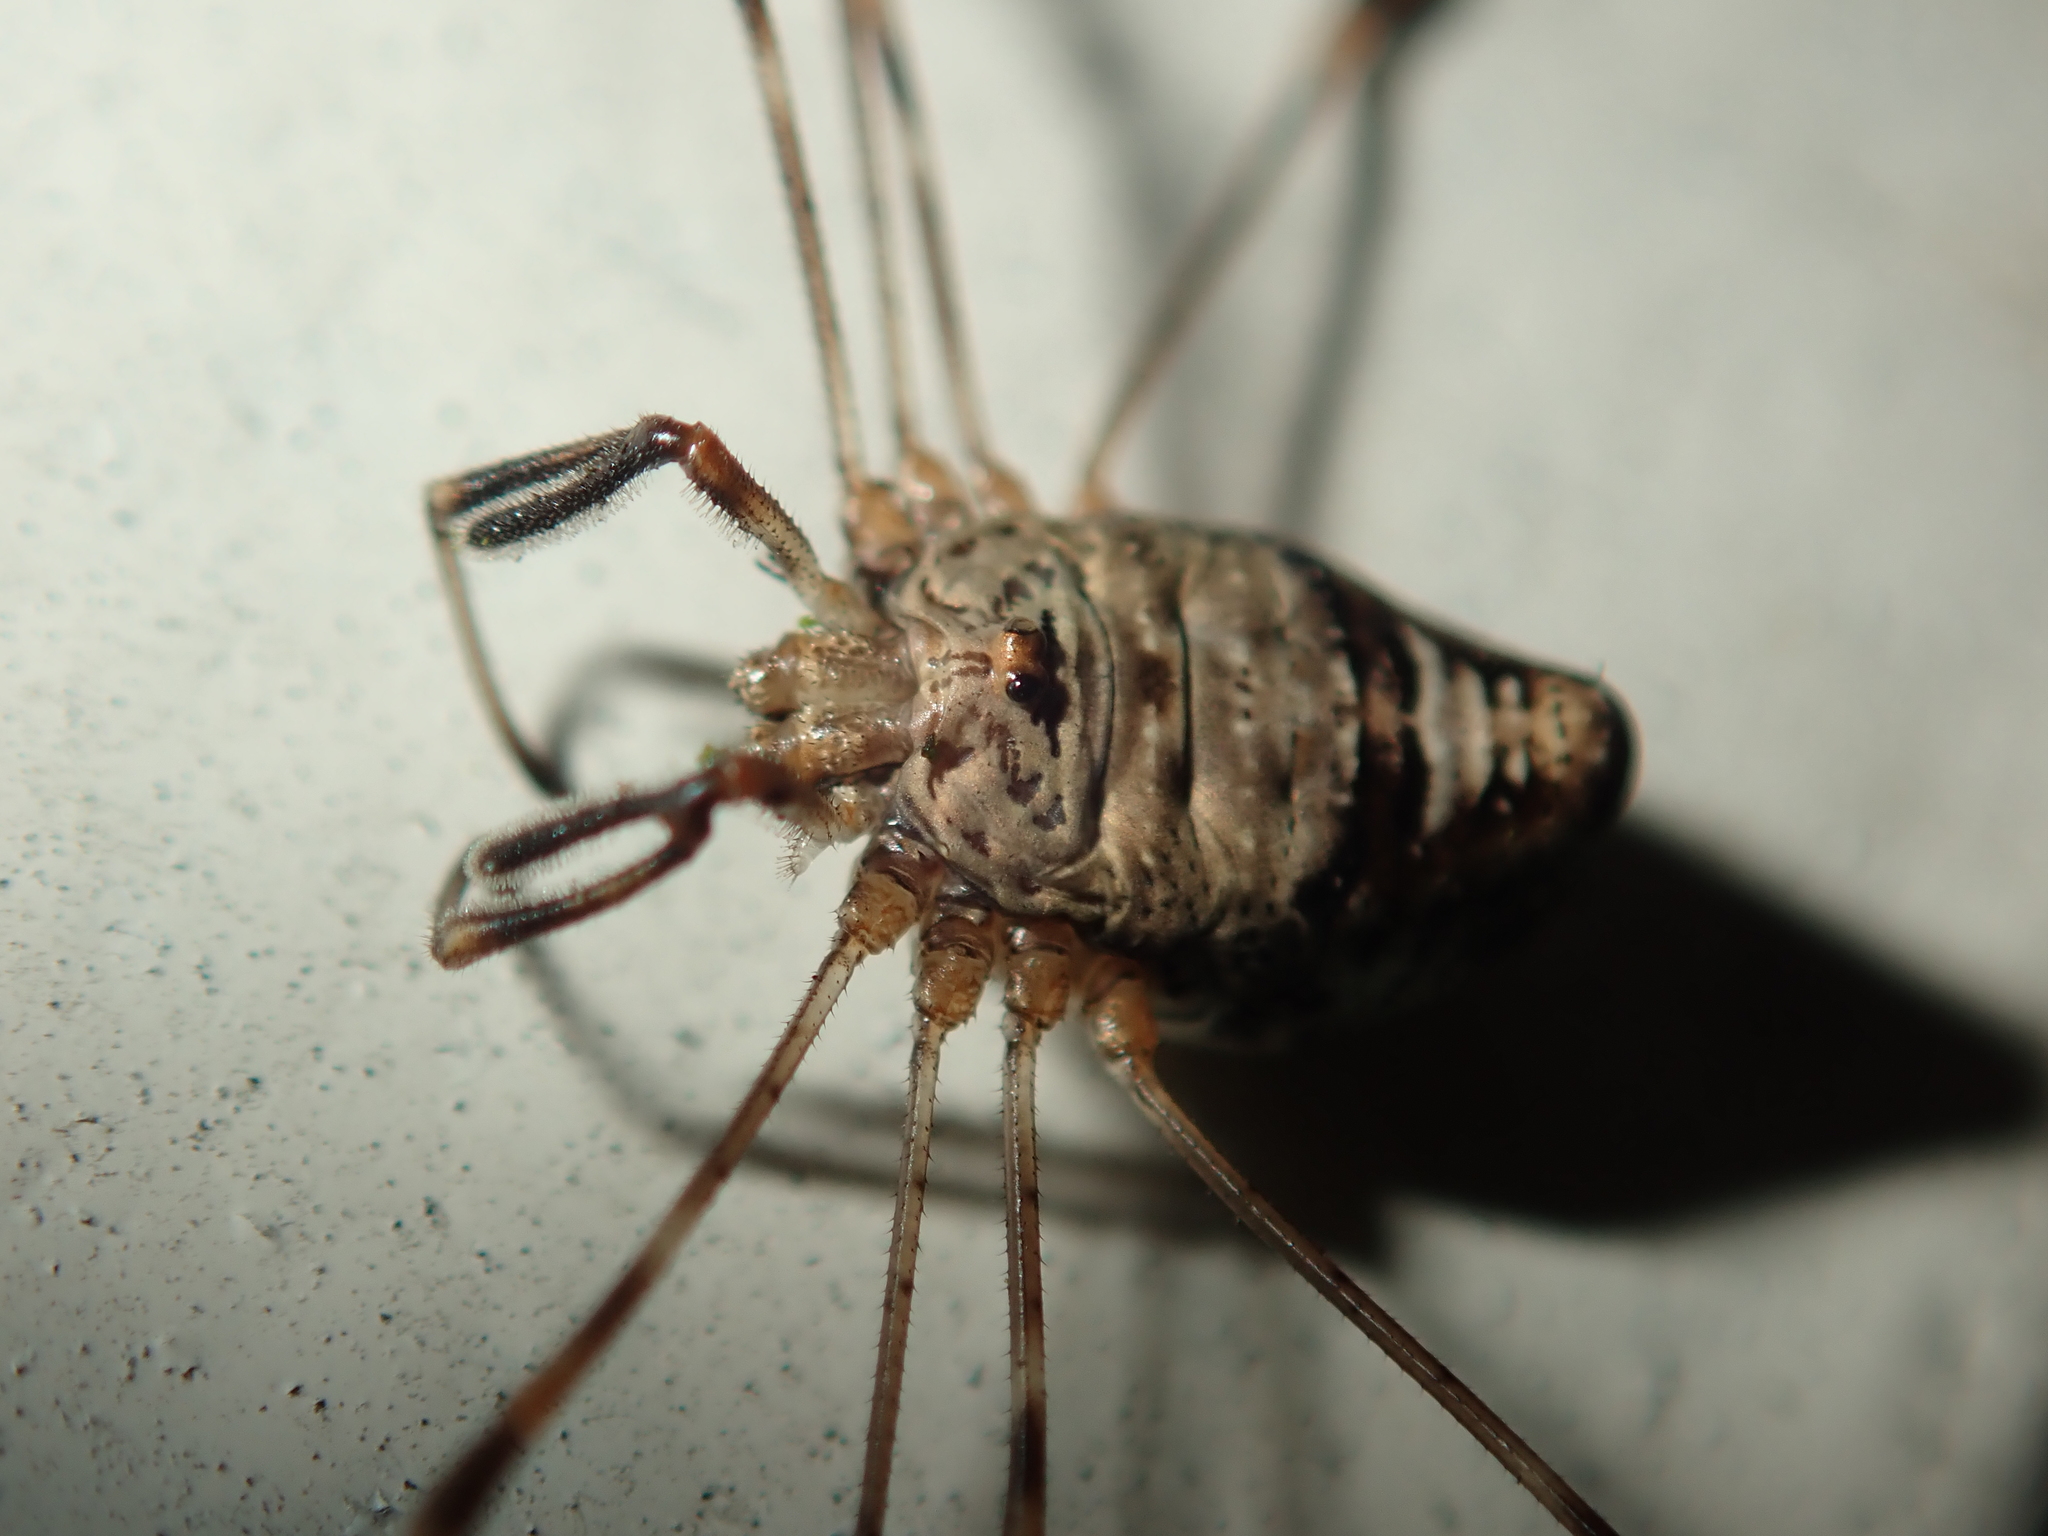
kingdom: Animalia
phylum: Arthropoda
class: Arachnida
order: Opiliones
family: Phalangiidae
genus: Dicranopalpus
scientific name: Dicranopalpus ramosus
